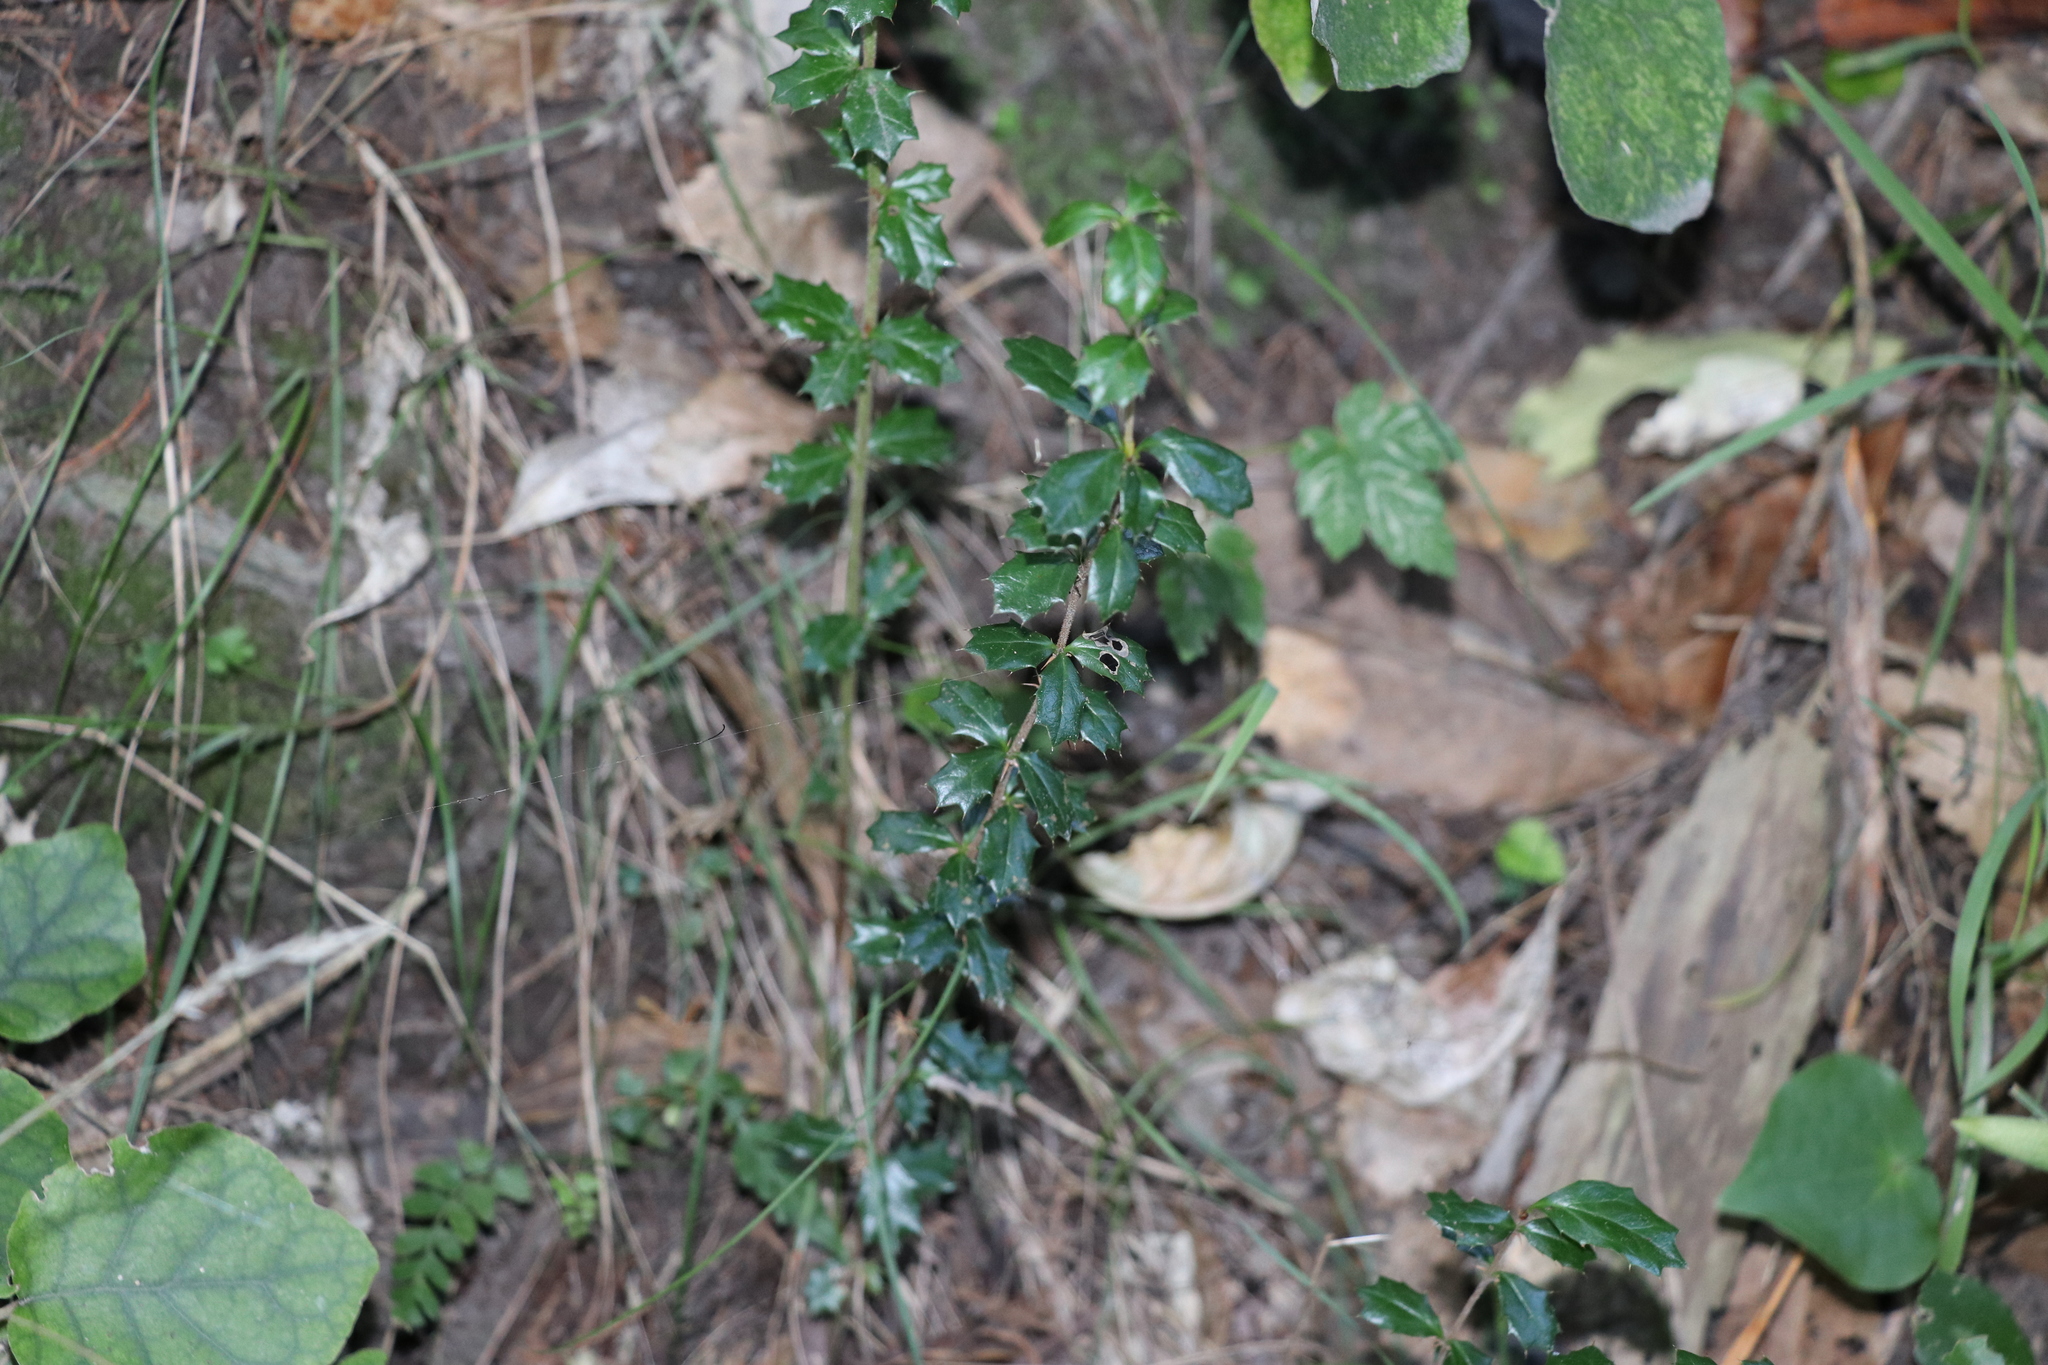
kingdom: Plantae
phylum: Tracheophyta
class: Magnoliopsida
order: Ranunculales
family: Berberidaceae
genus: Berberis
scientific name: Berberis darwinii
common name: Darwin's barberry
